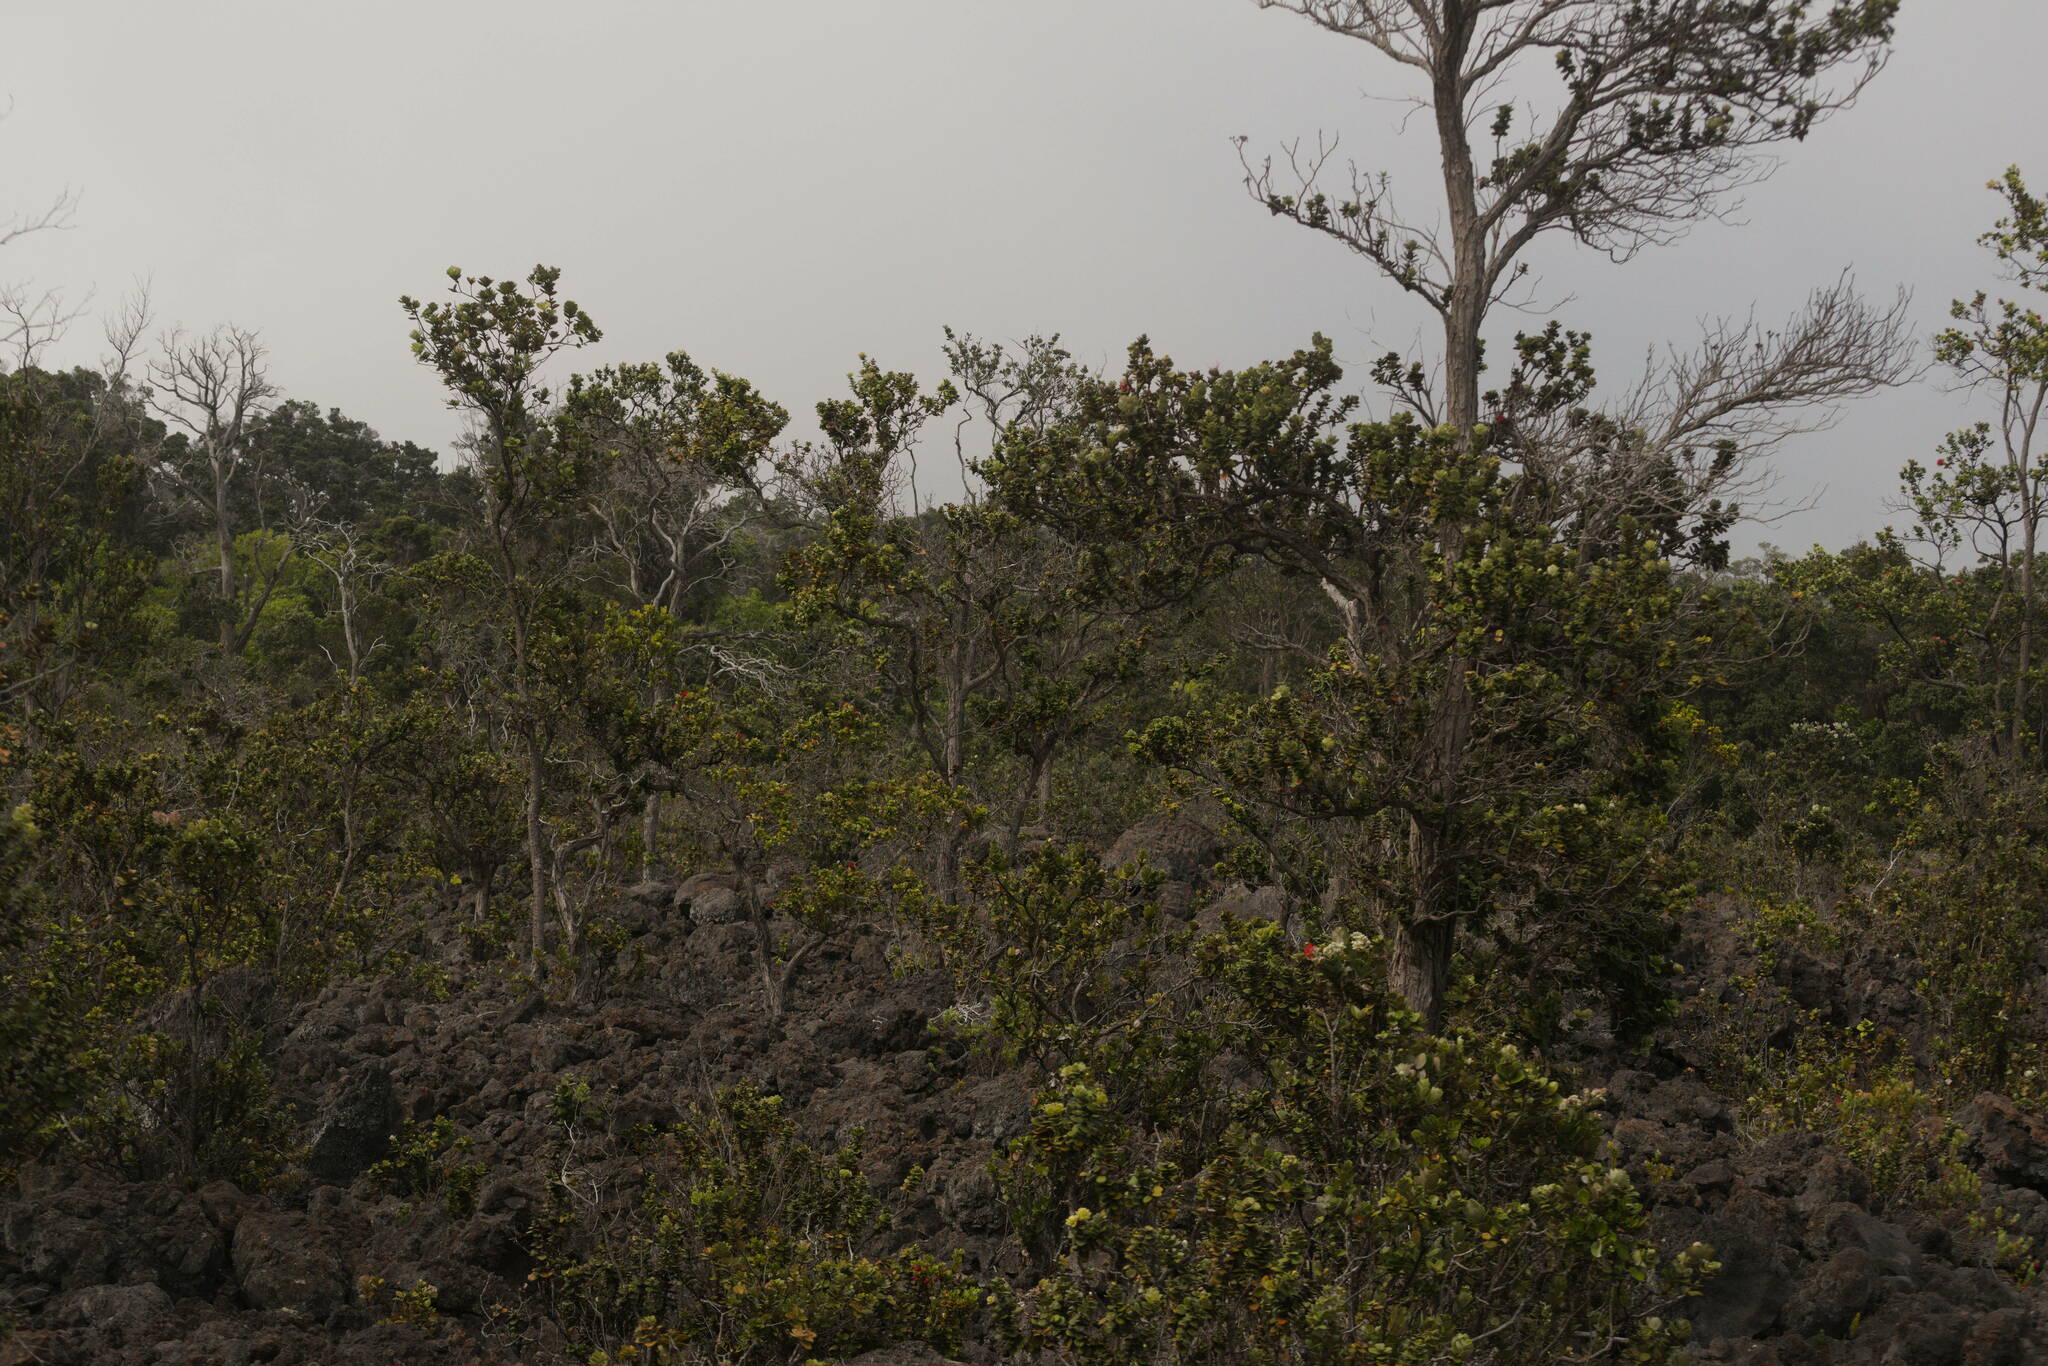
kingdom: Plantae
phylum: Tracheophyta
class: Magnoliopsida
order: Myrtales
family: Myrtaceae
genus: Metrosideros
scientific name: Metrosideros polymorpha
